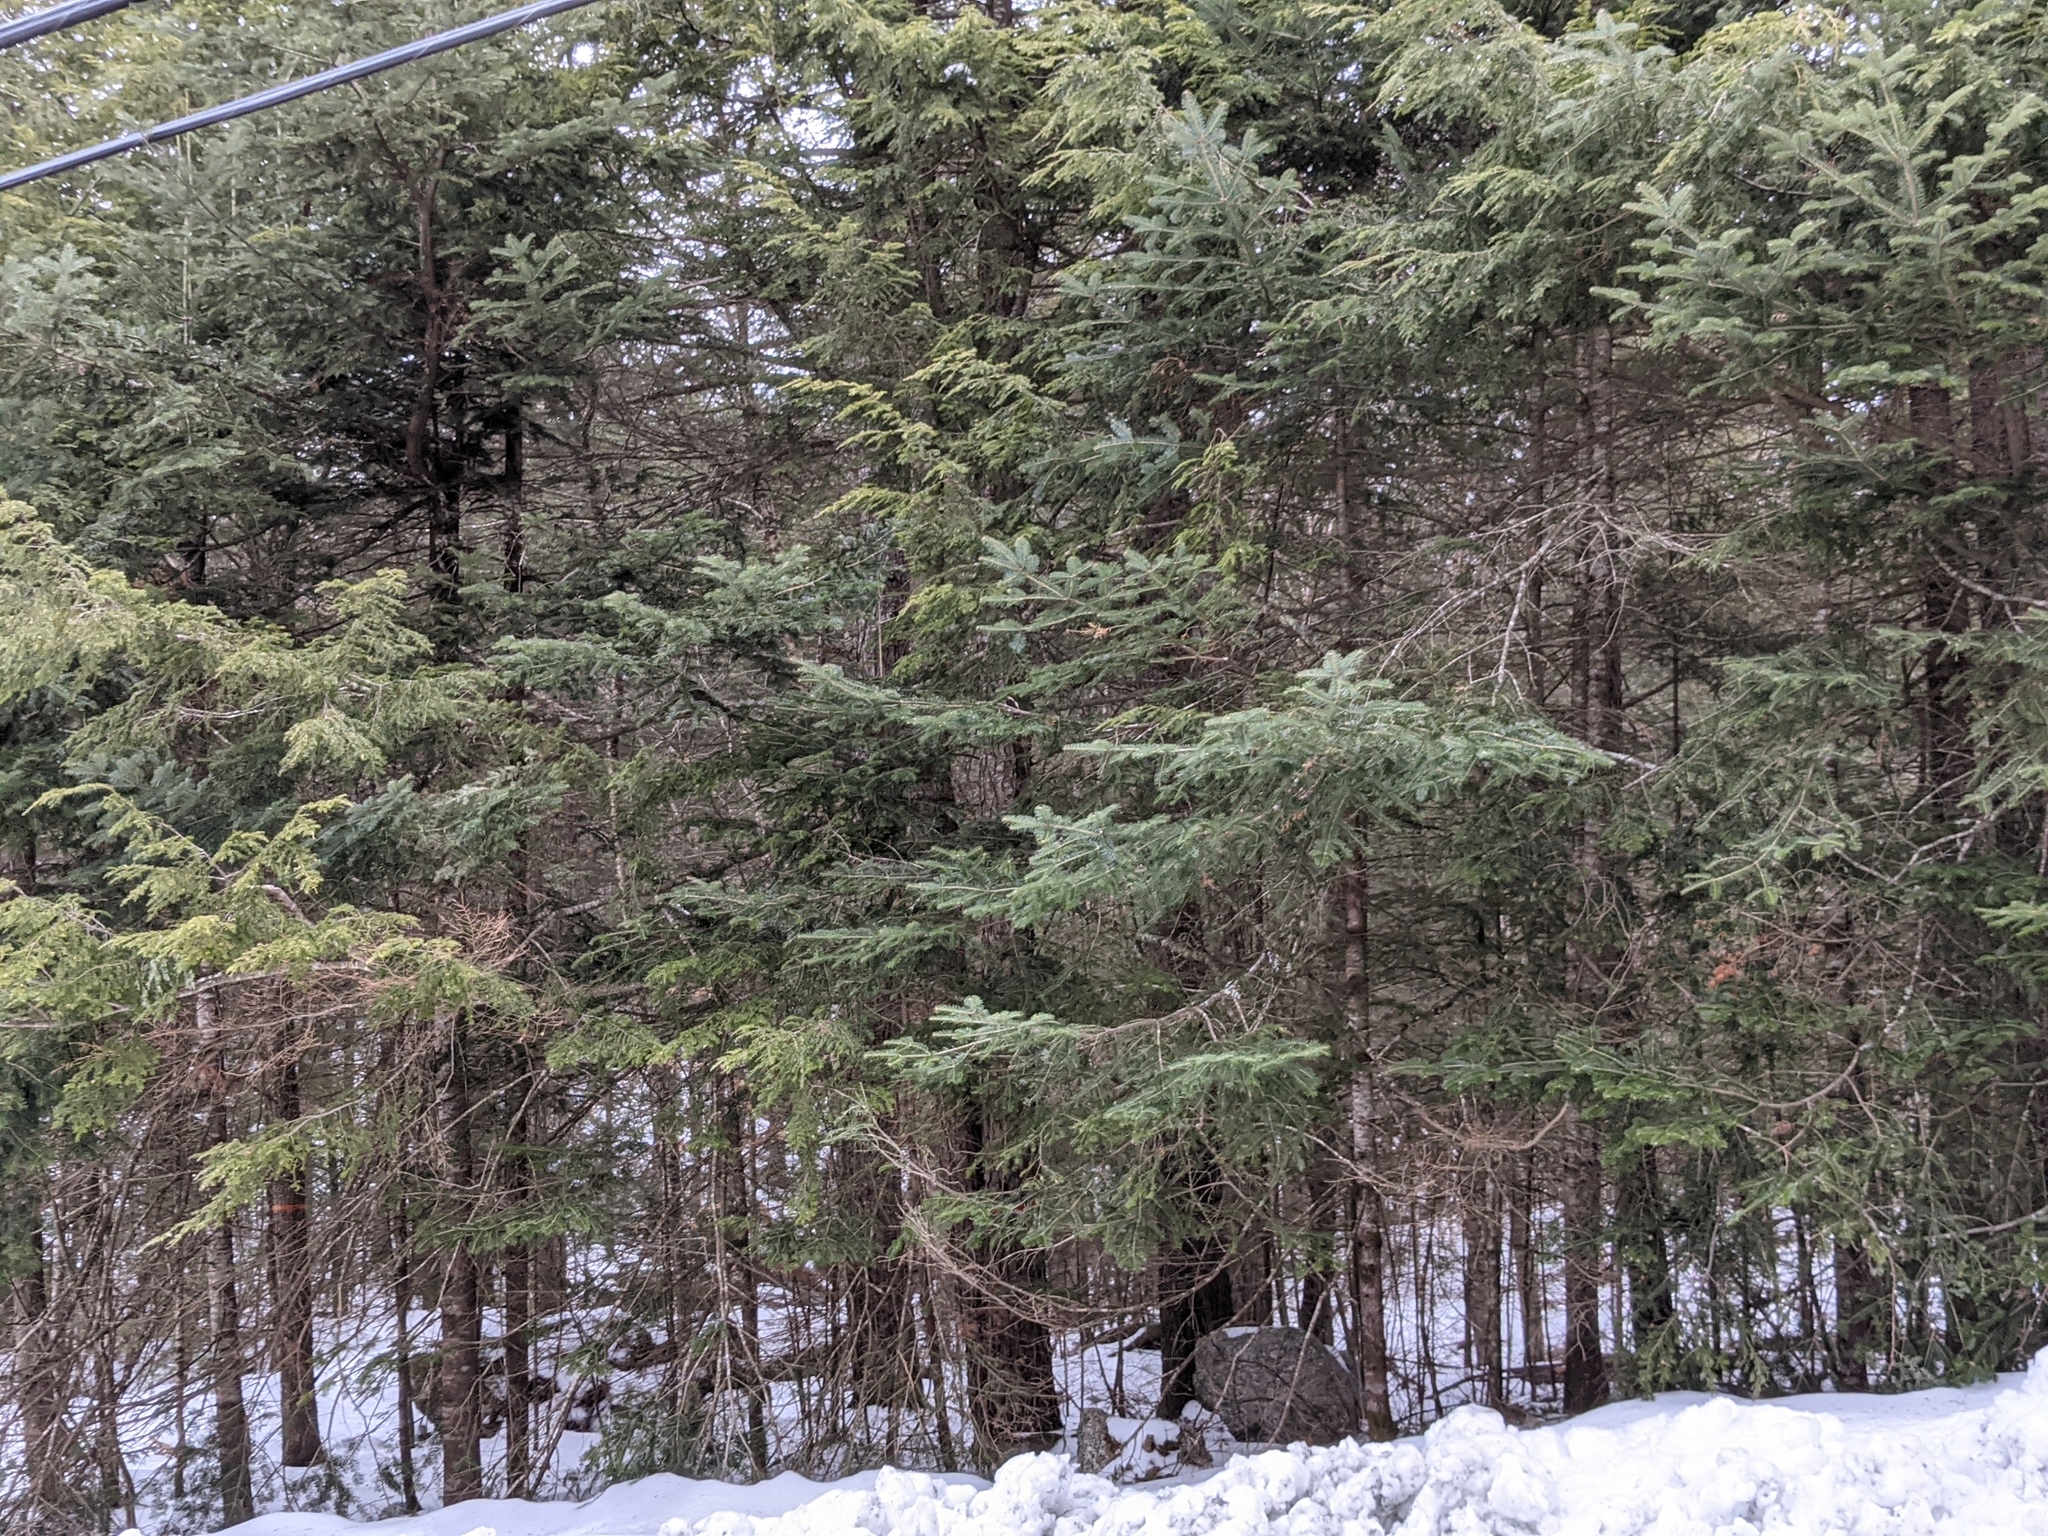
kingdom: Plantae
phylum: Tracheophyta
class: Pinopsida
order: Pinales
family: Pinaceae
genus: Abies
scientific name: Abies balsamea
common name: Balsam fir
